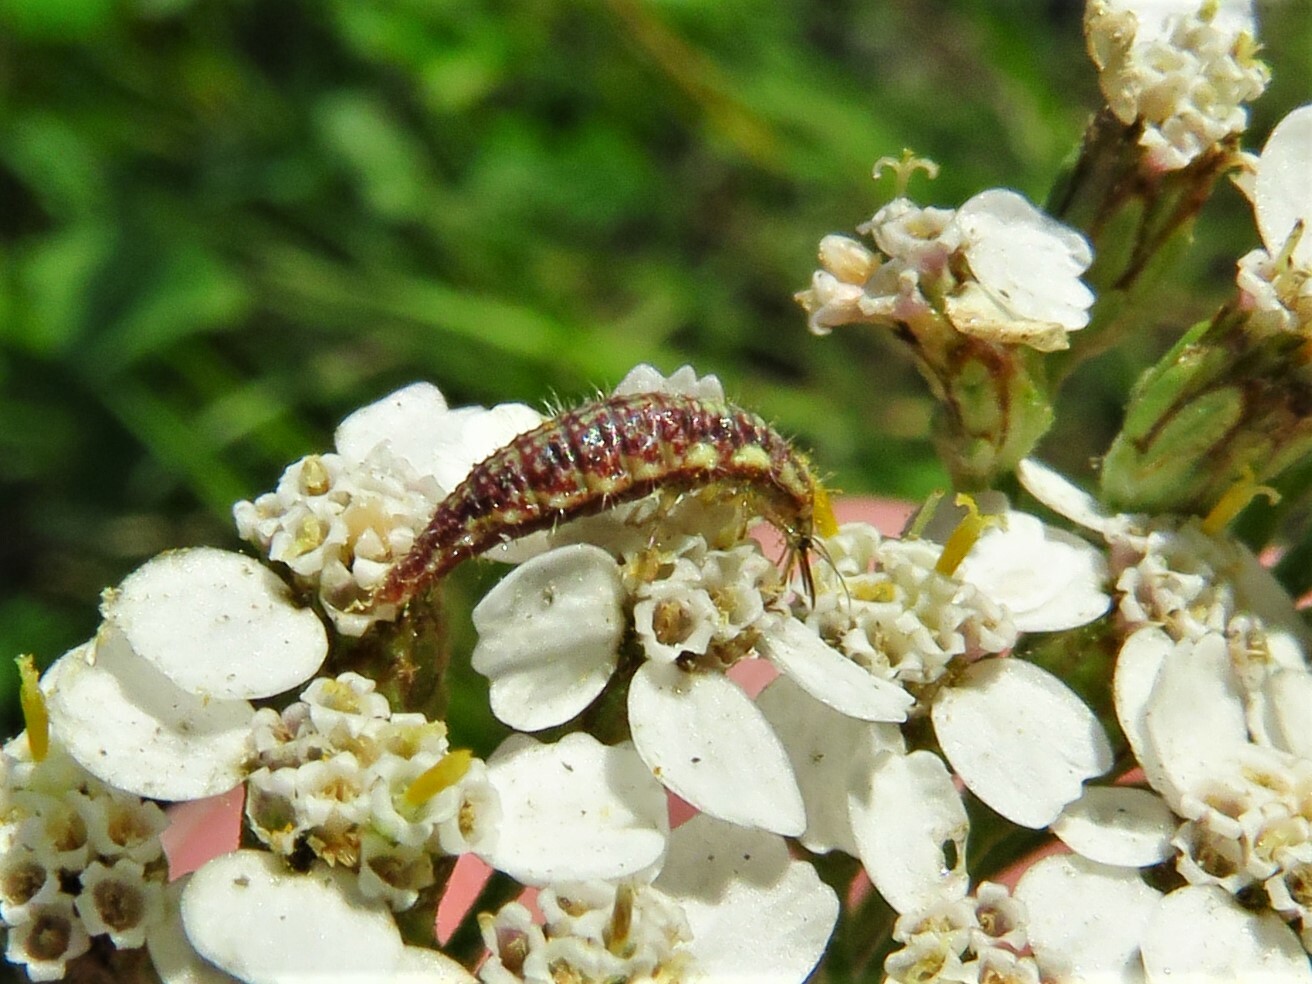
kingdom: Animalia
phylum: Arthropoda
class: Insecta
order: Neuroptera
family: Chrysopidae
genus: Chrysoperla
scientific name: Chrysoperla
